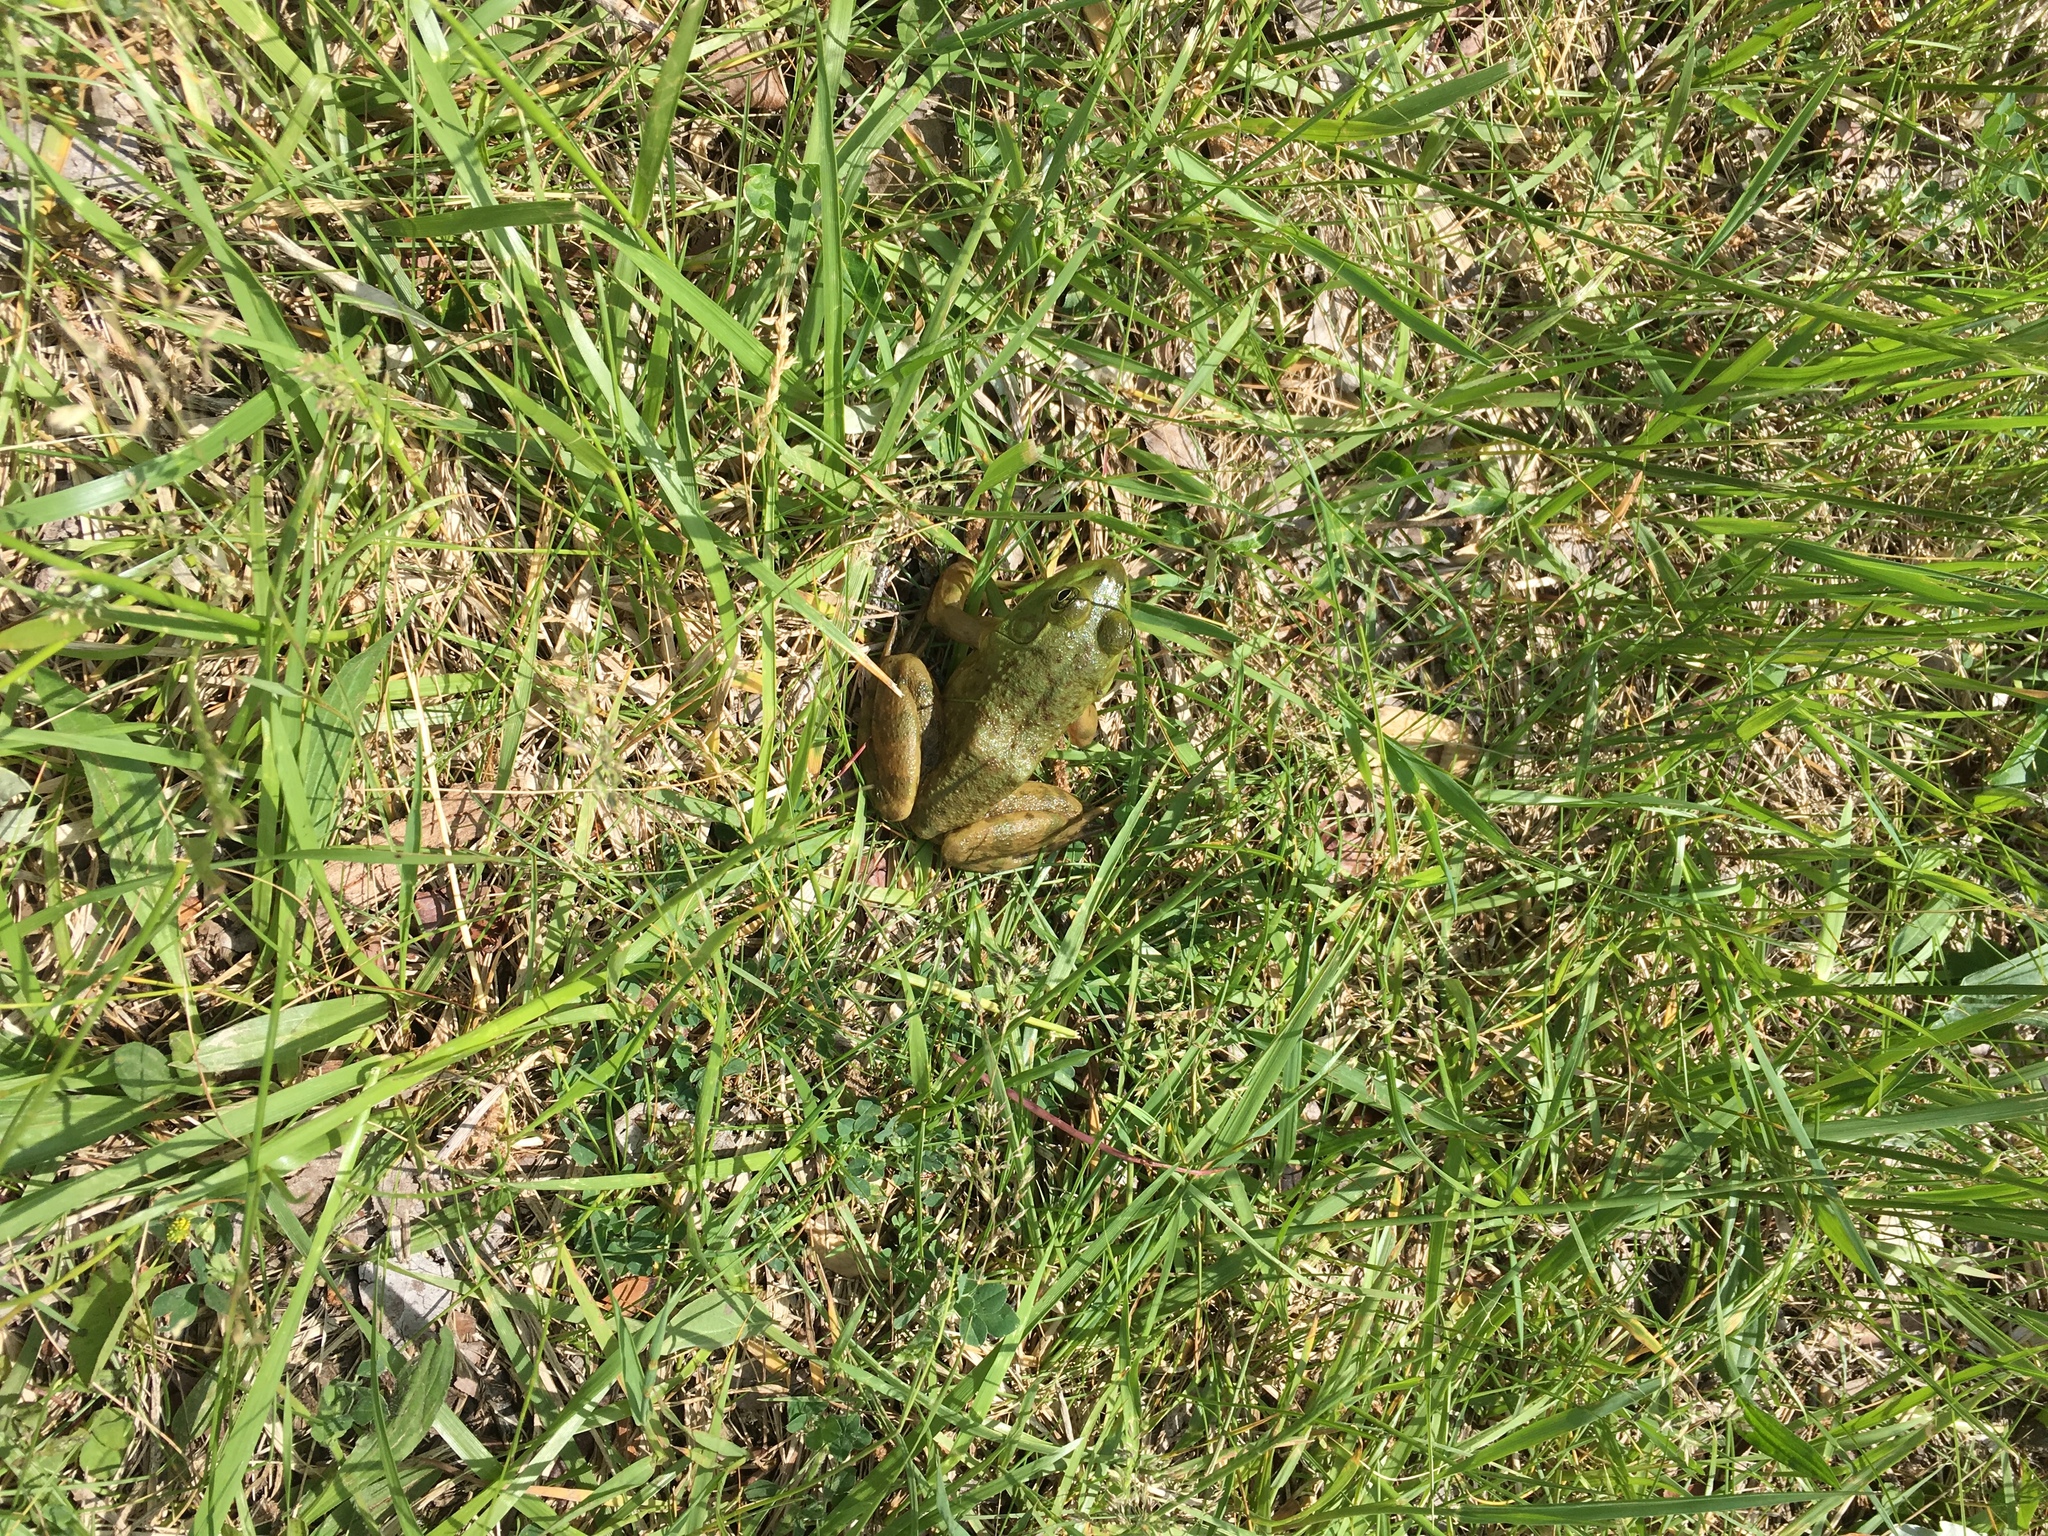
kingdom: Animalia
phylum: Chordata
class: Amphibia
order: Anura
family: Ranidae
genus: Lithobates
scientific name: Lithobates catesbeianus
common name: American bullfrog
